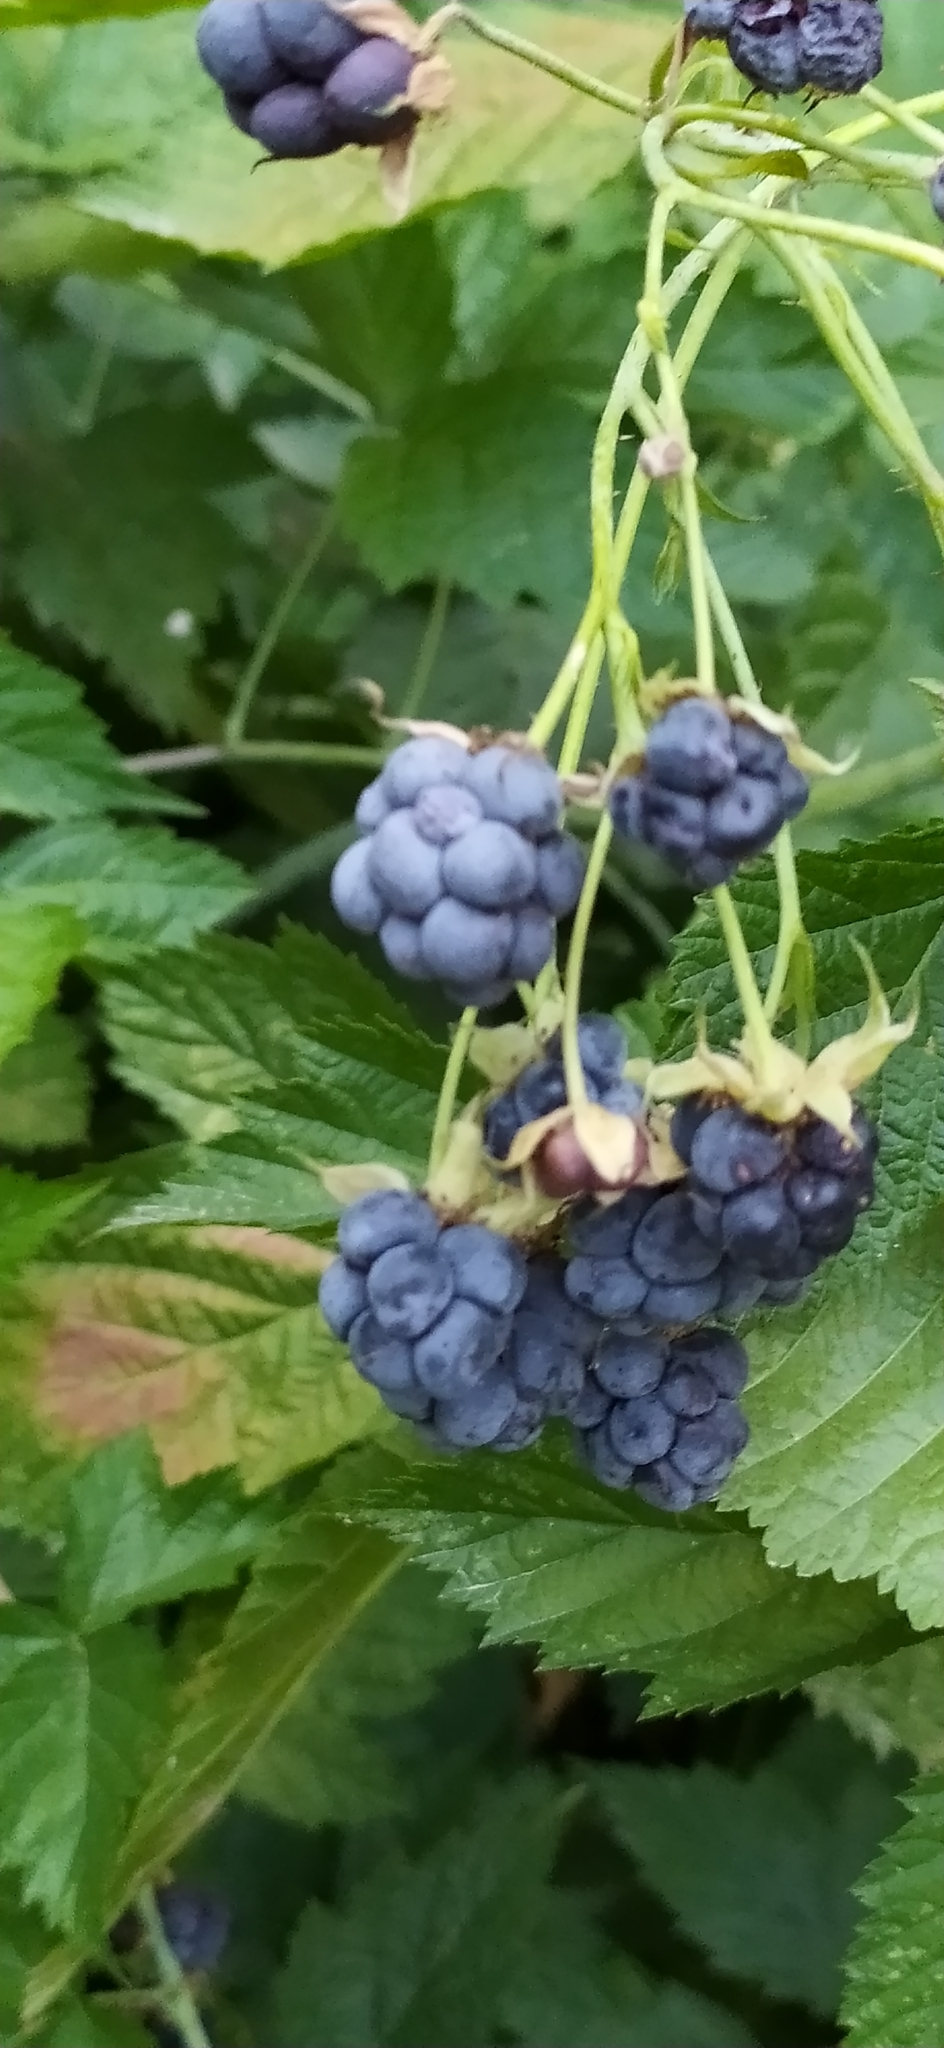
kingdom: Plantae
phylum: Tracheophyta
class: Magnoliopsida
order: Rosales
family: Rosaceae
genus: Rubus
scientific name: Rubus caesius
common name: Dewberry
